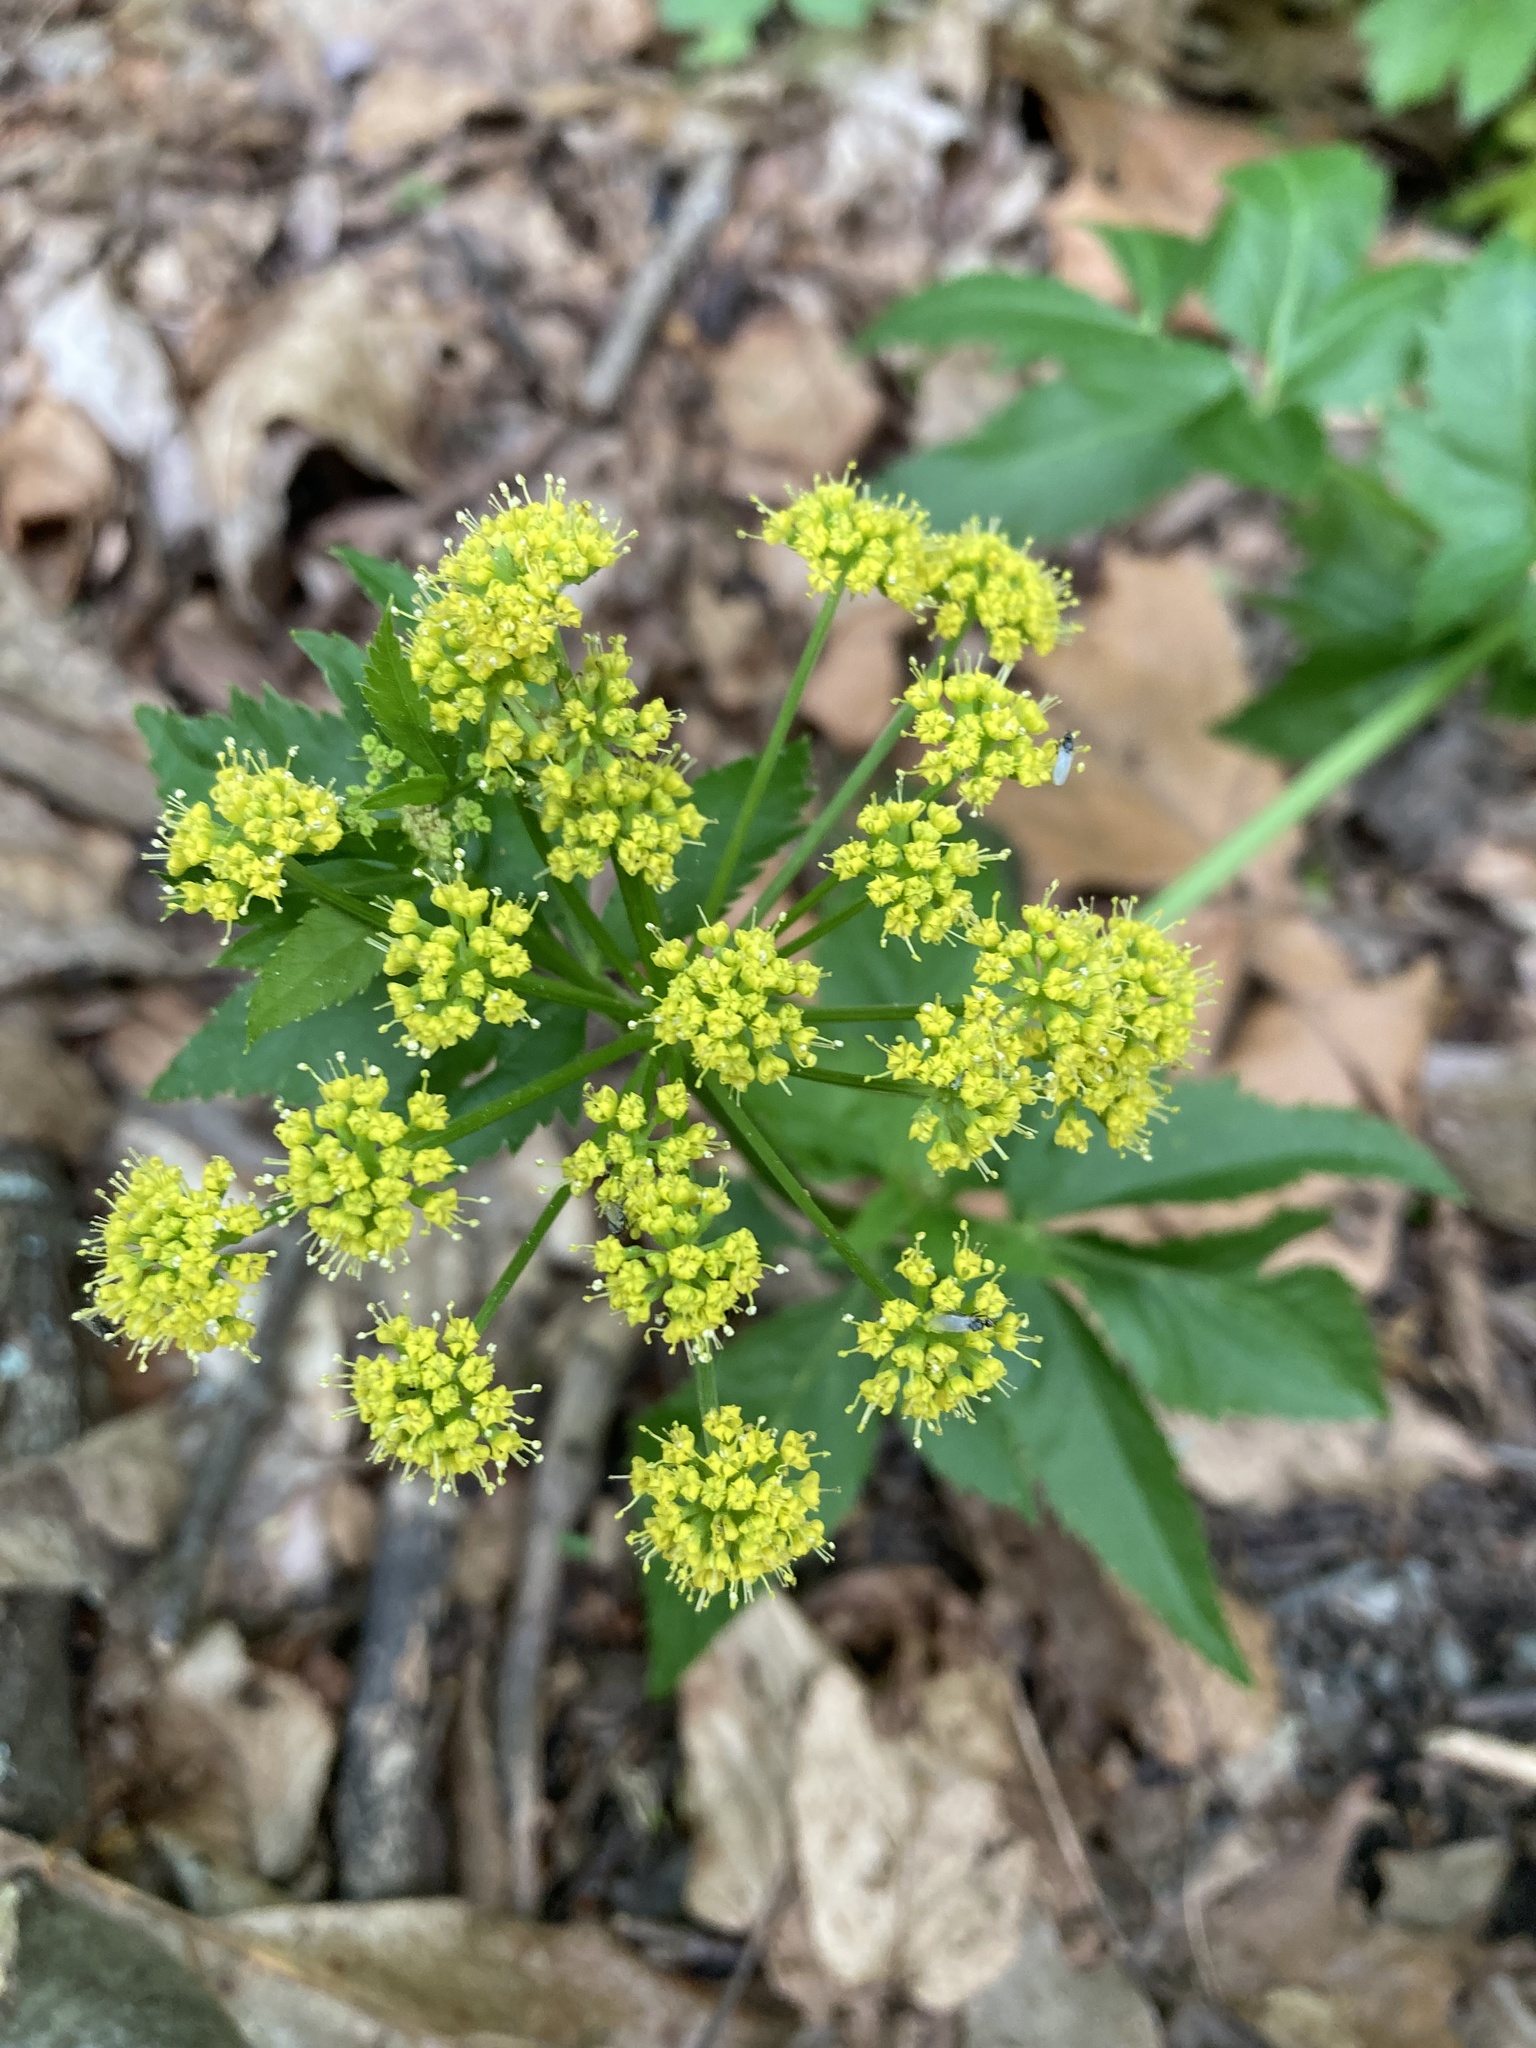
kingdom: Plantae
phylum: Tracheophyta
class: Magnoliopsida
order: Apiales
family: Apiaceae
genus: Zizia
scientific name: Zizia aurea
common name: Golden alexanders
